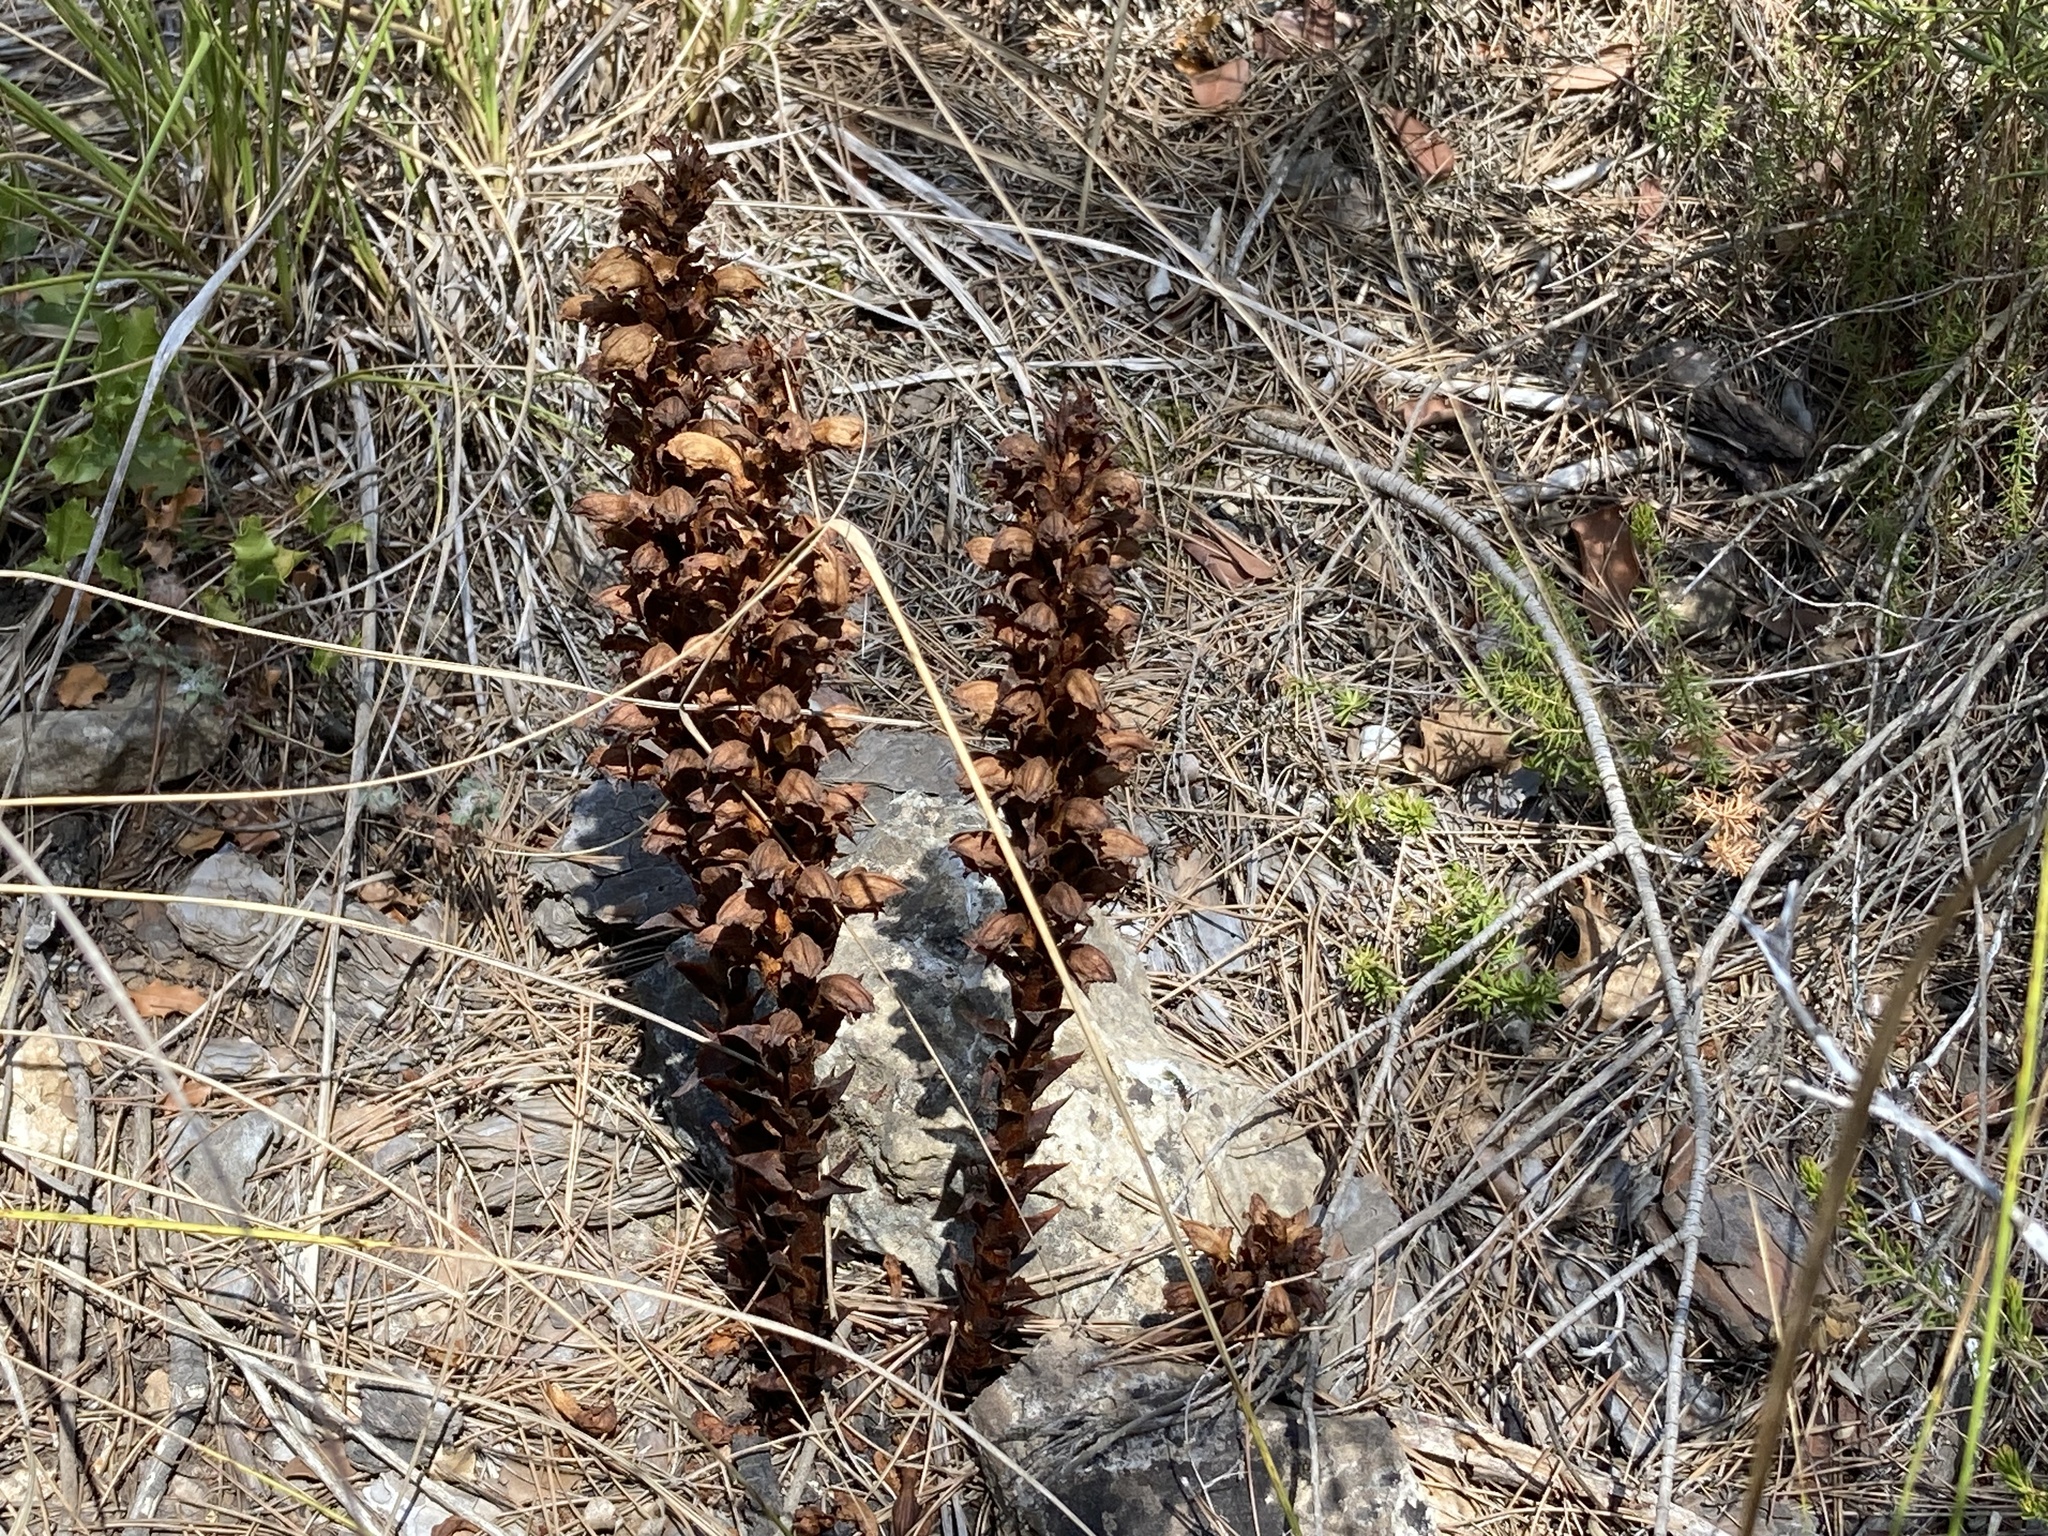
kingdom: Plantae
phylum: Tracheophyta
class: Magnoliopsida
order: Lamiales
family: Orobanchaceae
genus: Orobanche
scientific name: Orobanche hederae
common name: Ivy broomrape
